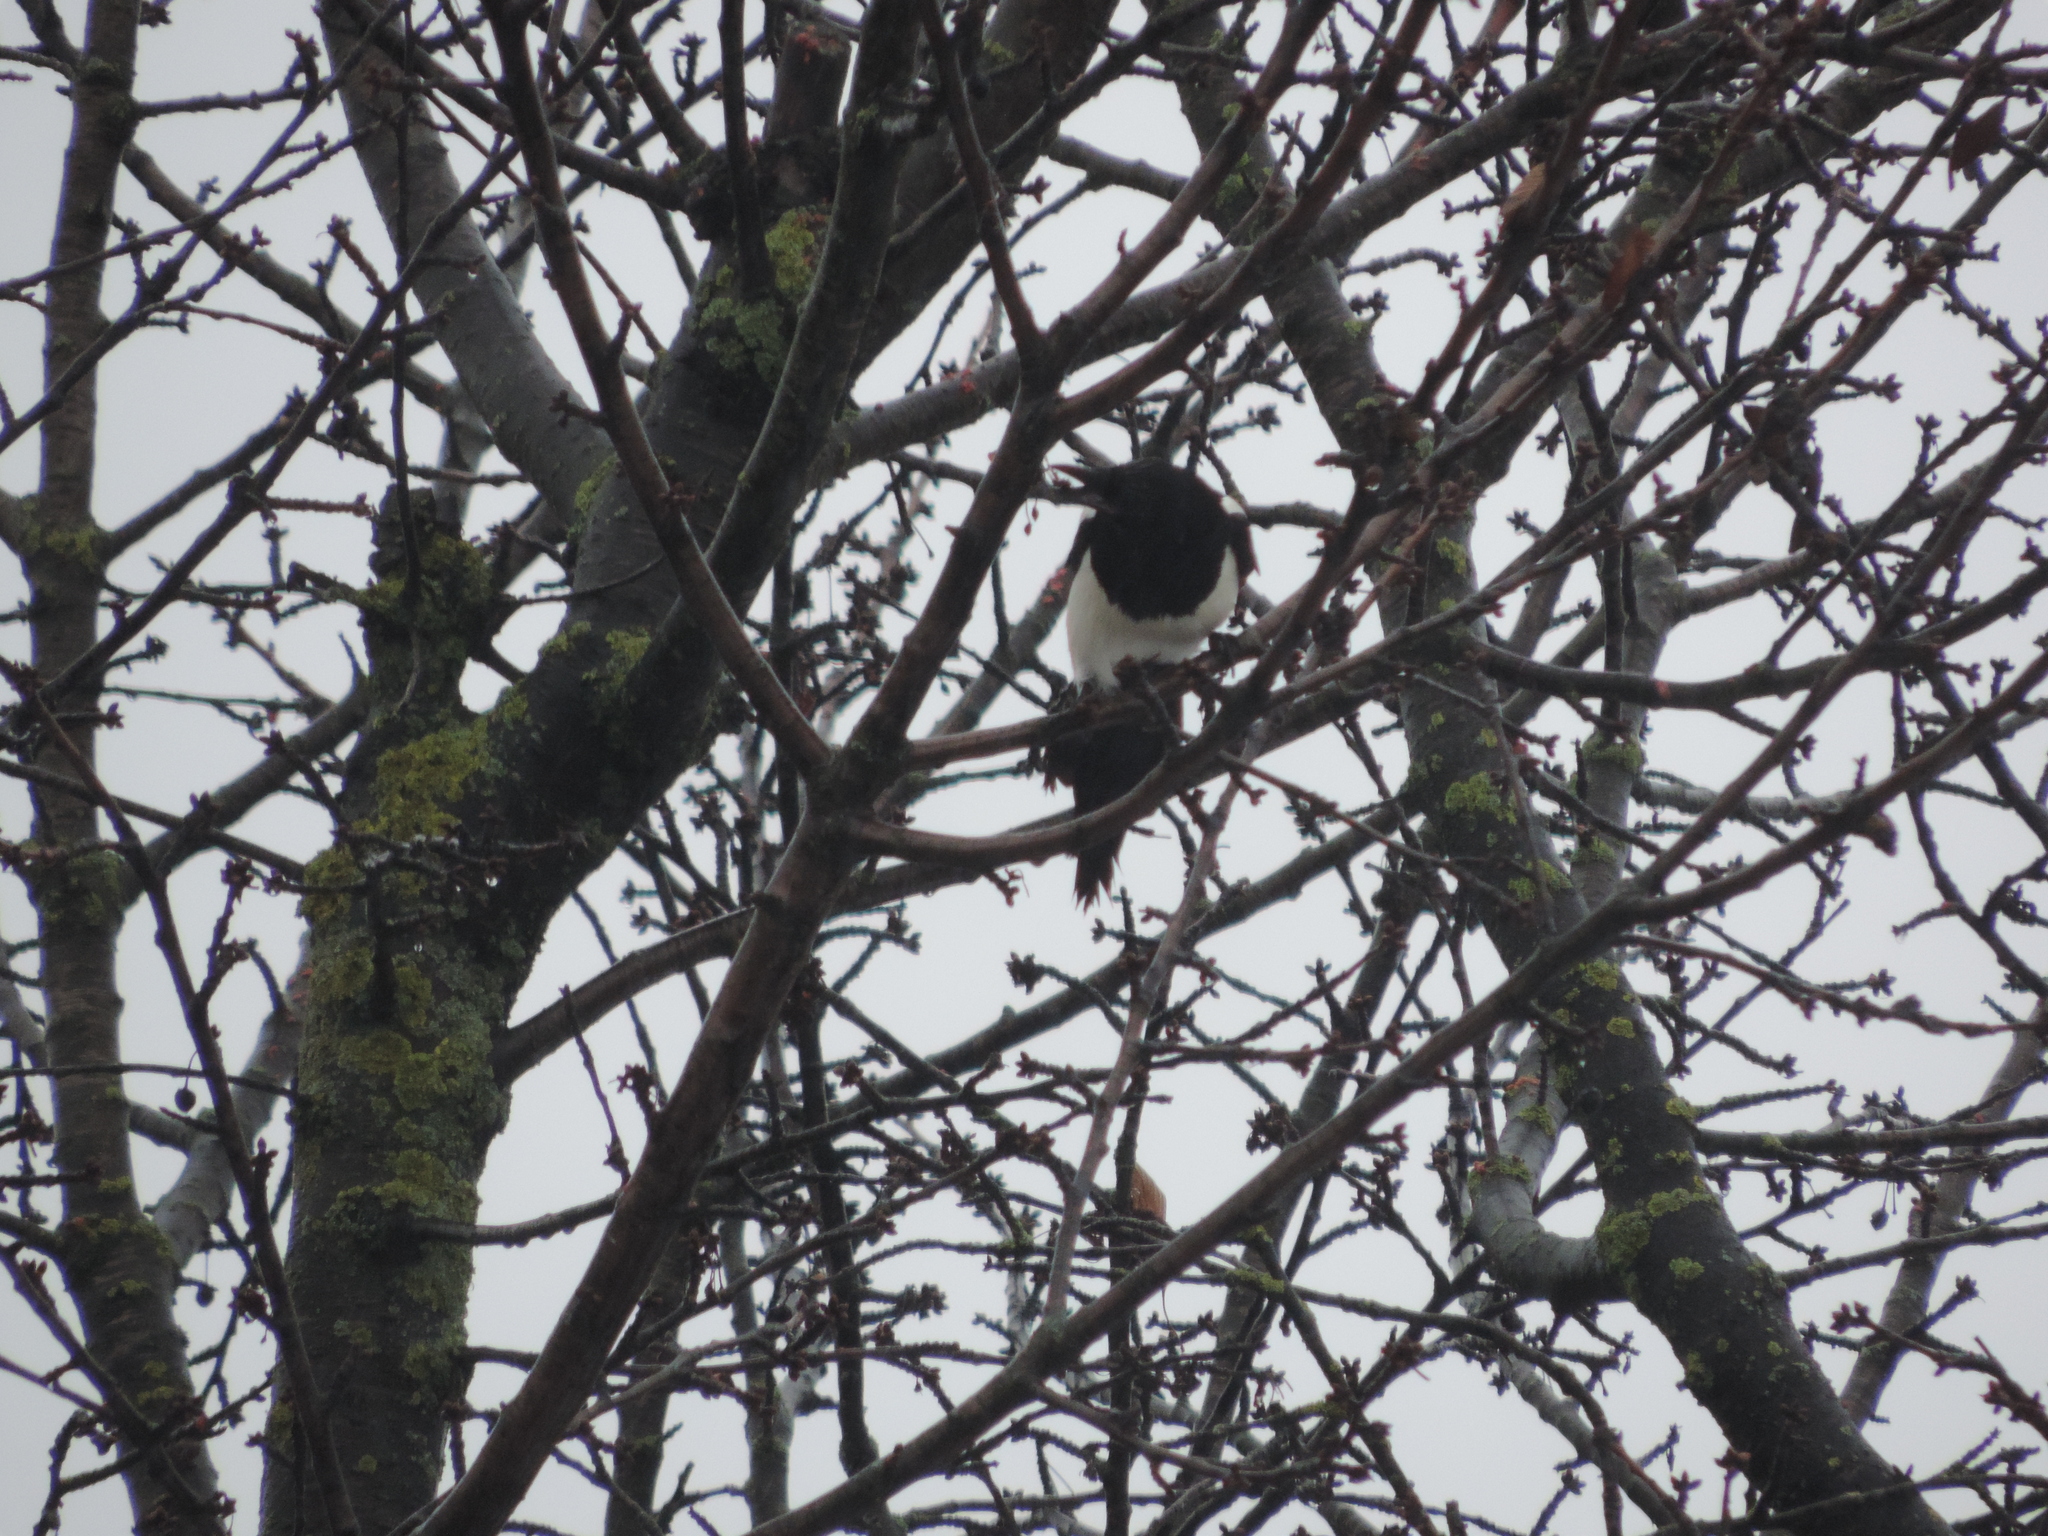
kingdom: Animalia
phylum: Chordata
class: Aves
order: Passeriformes
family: Corvidae
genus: Pica
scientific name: Pica pica
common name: Eurasian magpie
